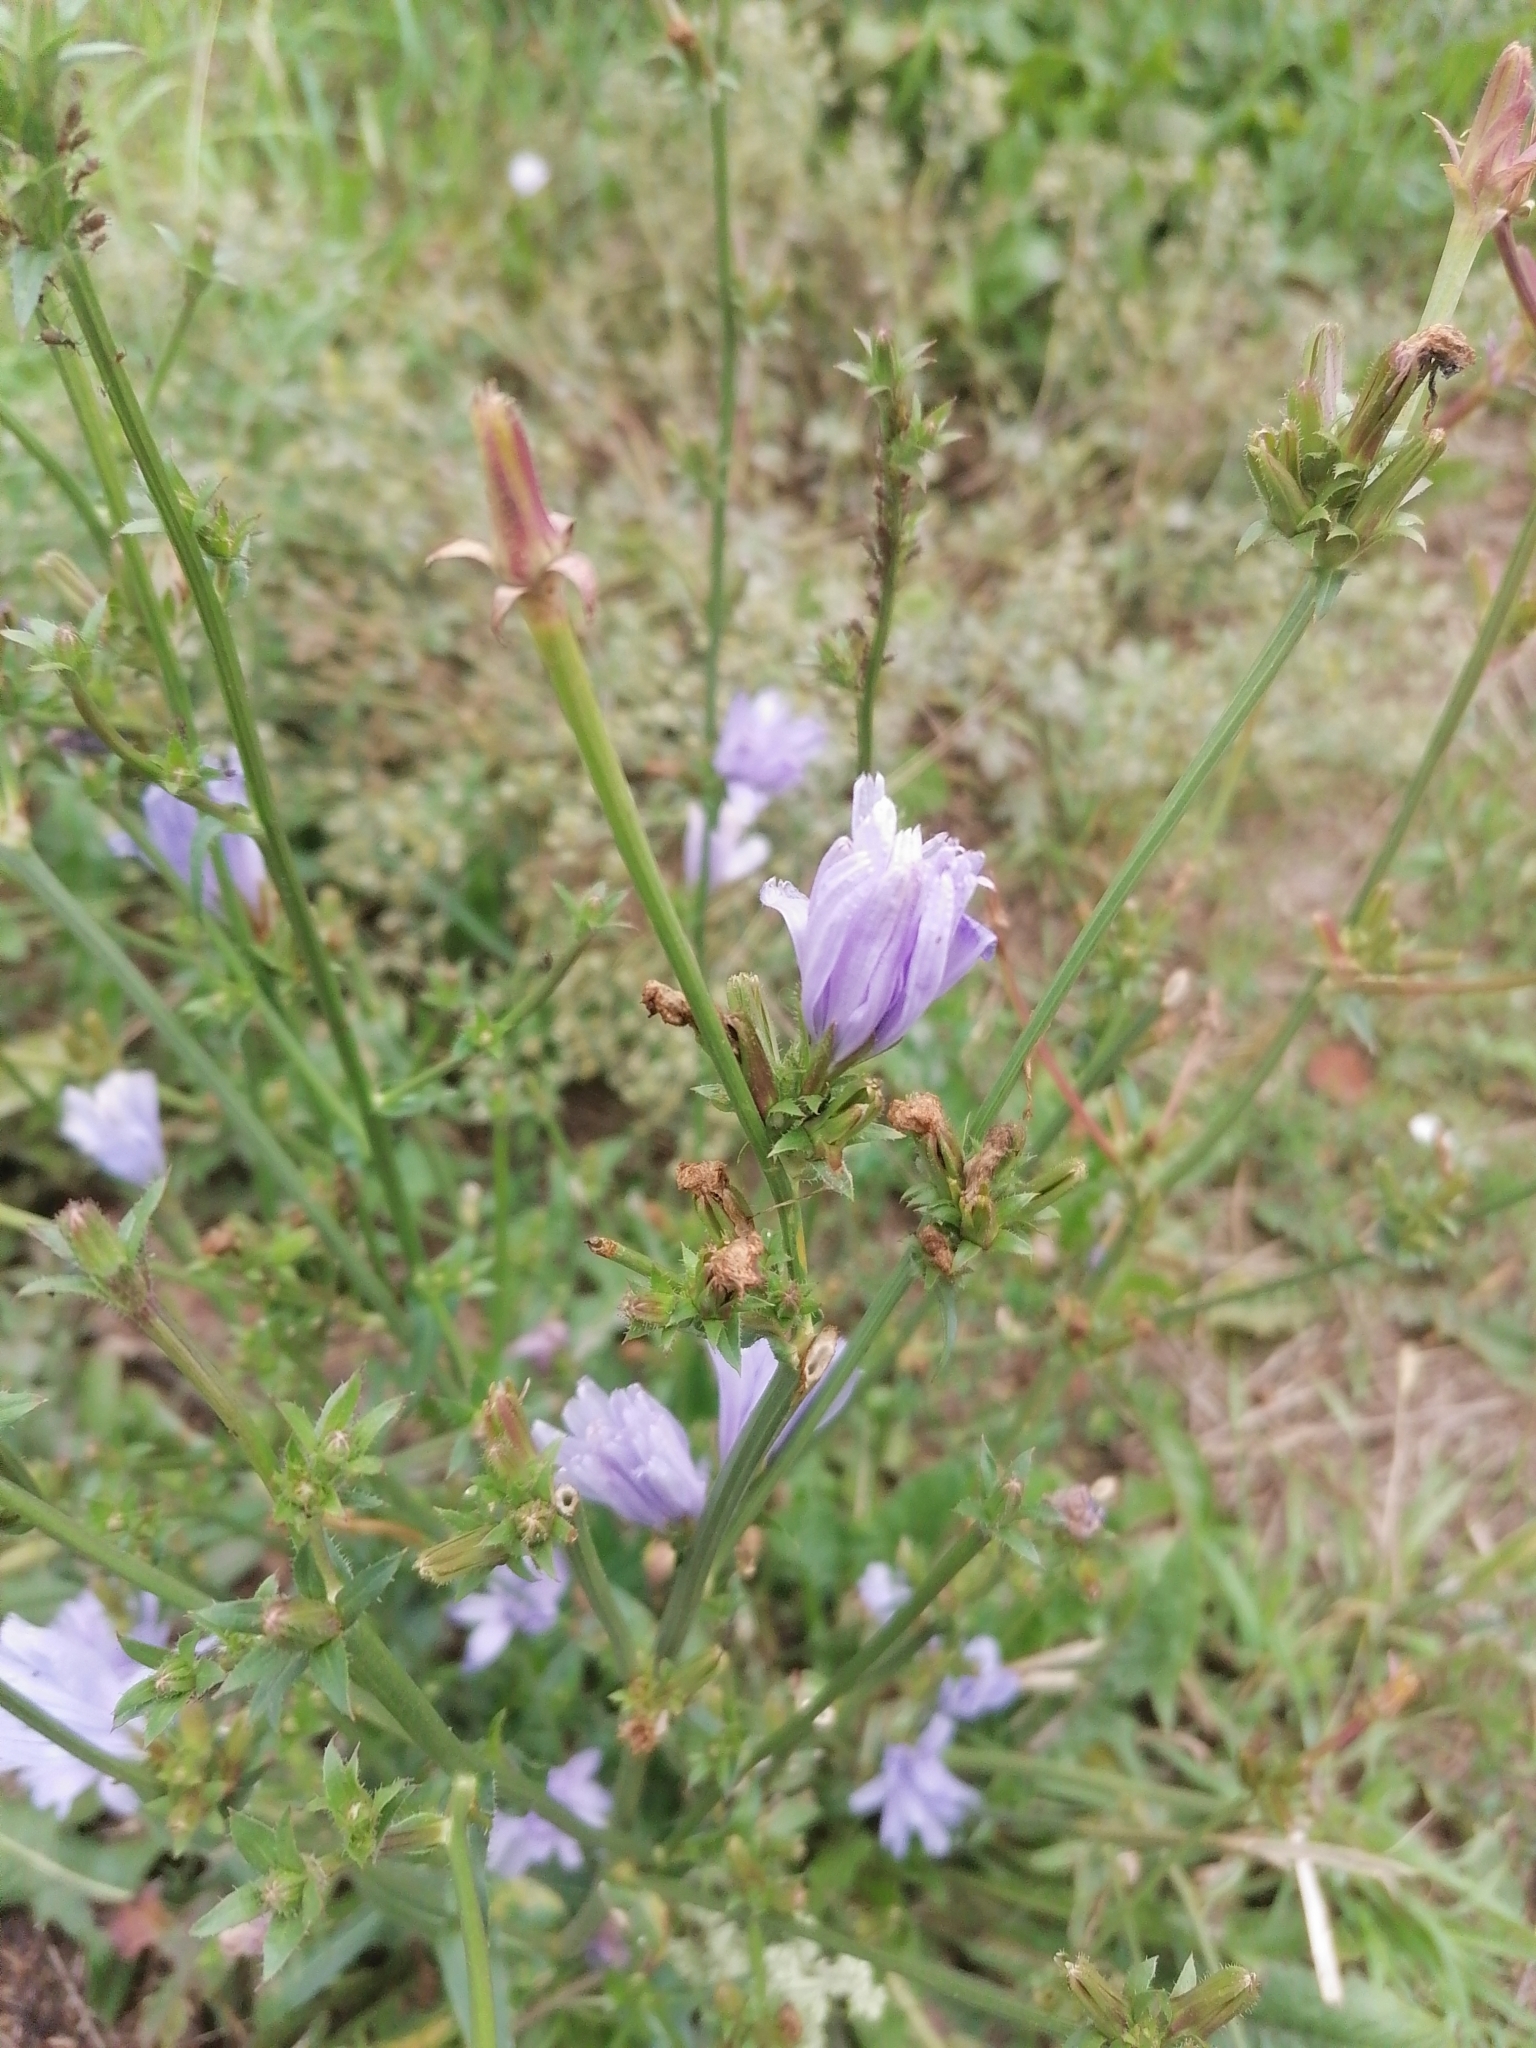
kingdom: Plantae
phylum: Tracheophyta
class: Magnoliopsida
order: Asterales
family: Asteraceae
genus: Cichorium
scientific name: Cichorium intybus
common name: Chicory
